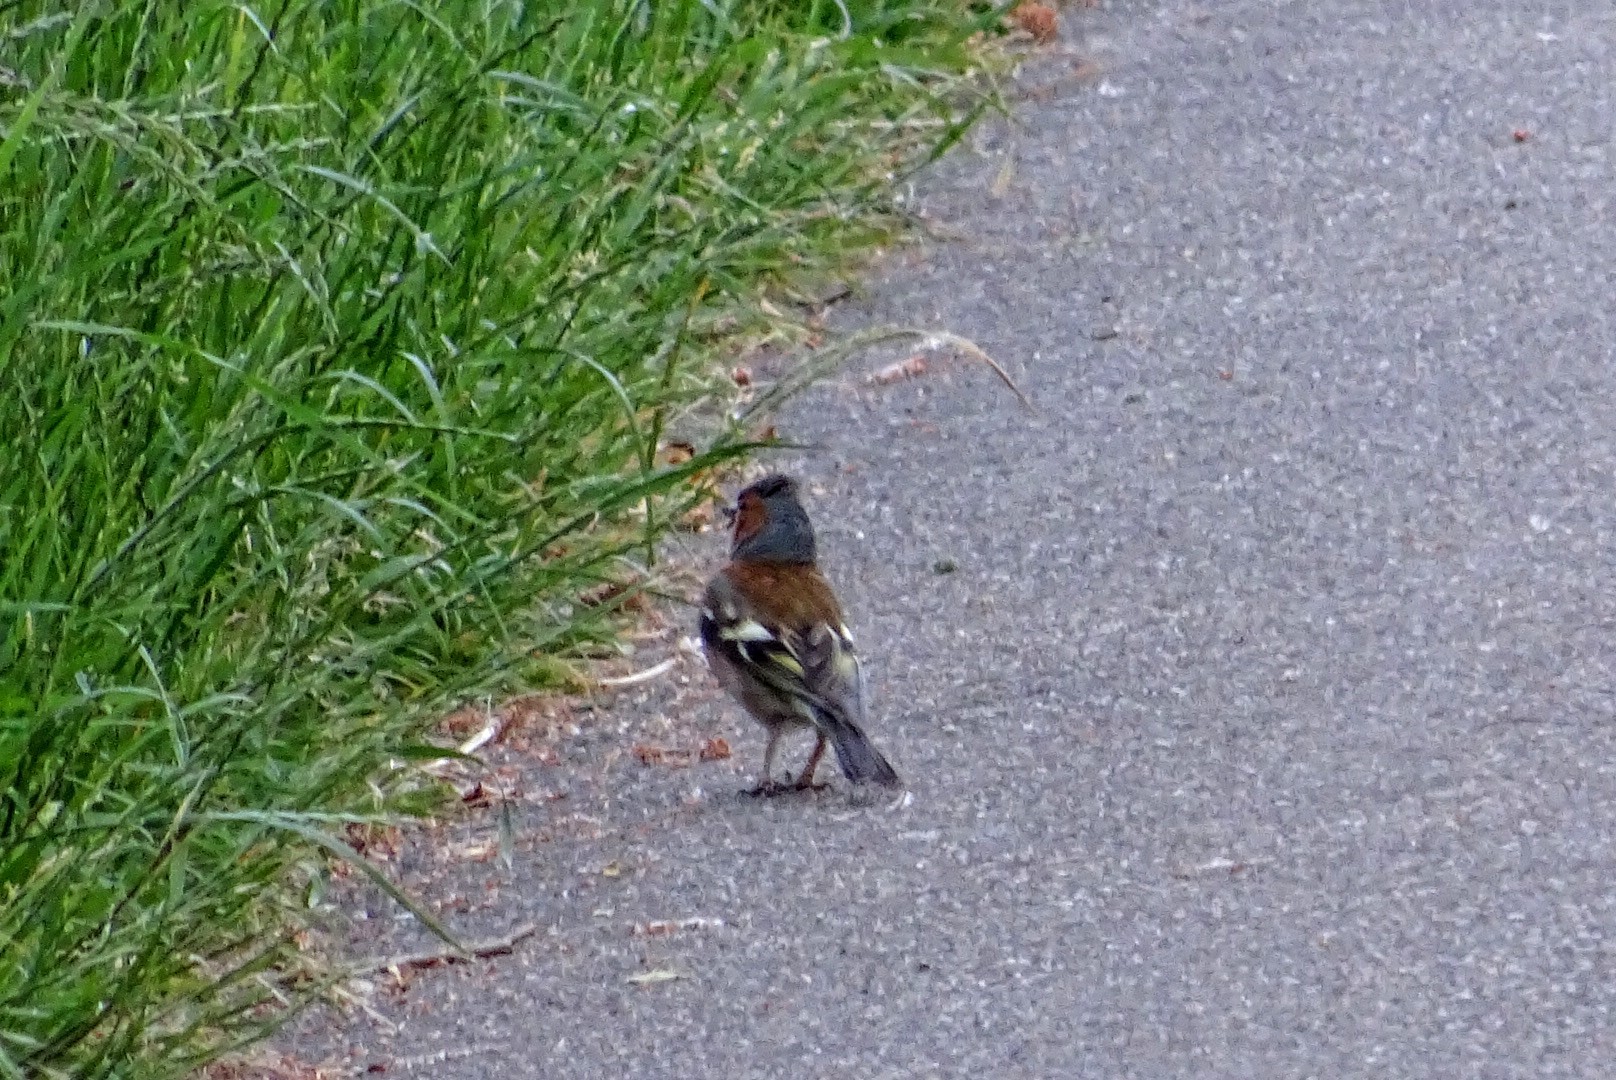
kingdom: Animalia
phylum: Chordata
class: Aves
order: Passeriformes
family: Fringillidae
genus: Fringilla
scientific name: Fringilla coelebs
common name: Common chaffinch
